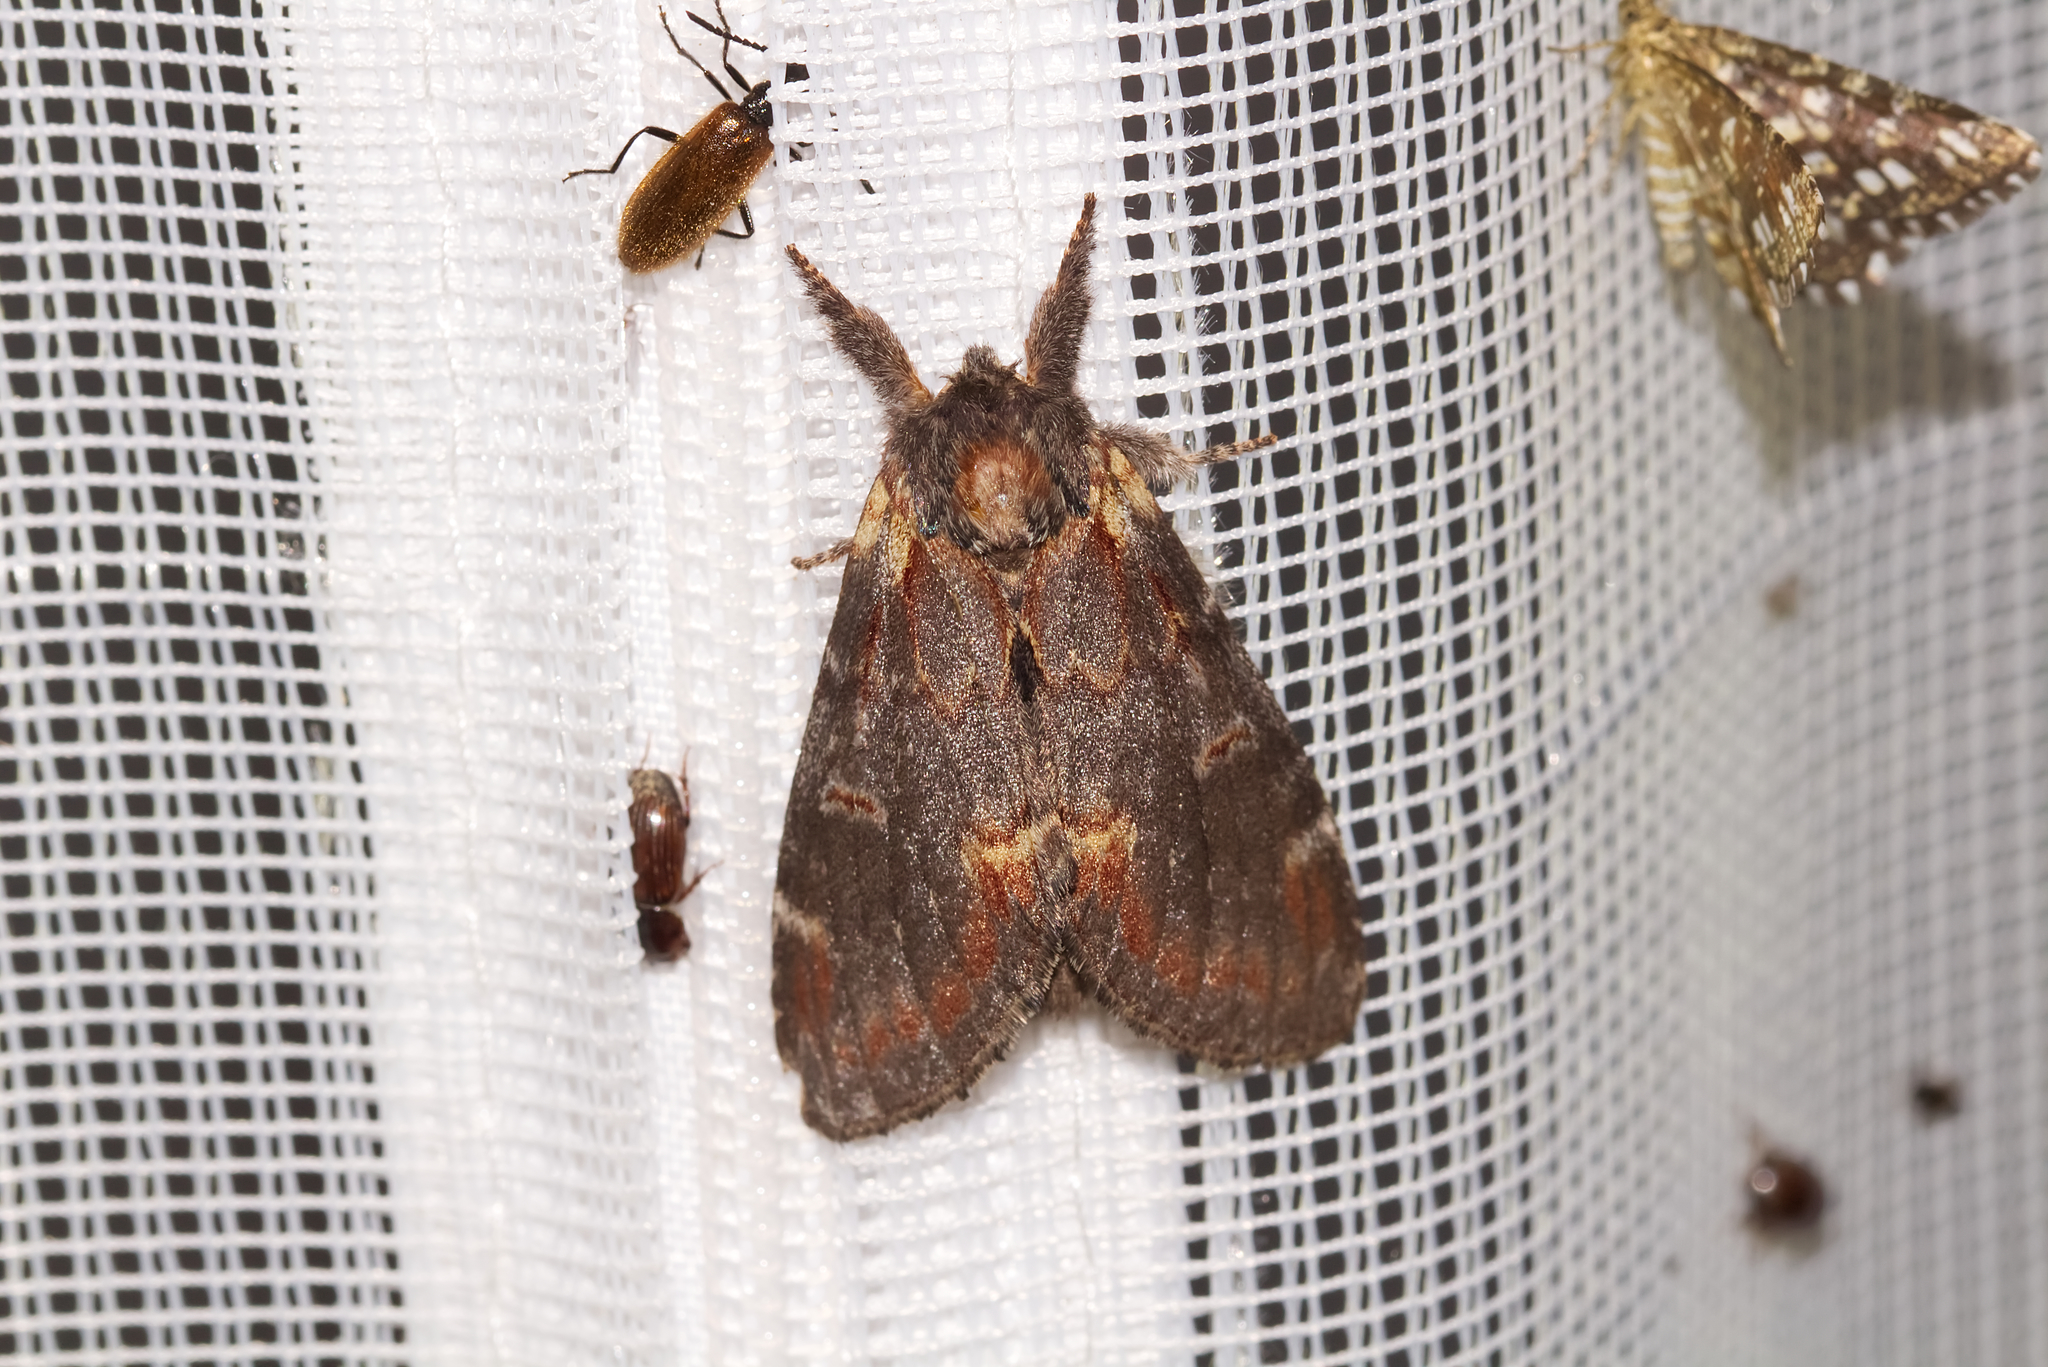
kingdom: Animalia
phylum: Arthropoda
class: Insecta
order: Lepidoptera
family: Notodontidae
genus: Notodonta
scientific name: Notodonta dromedarius
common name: Iron prominent
